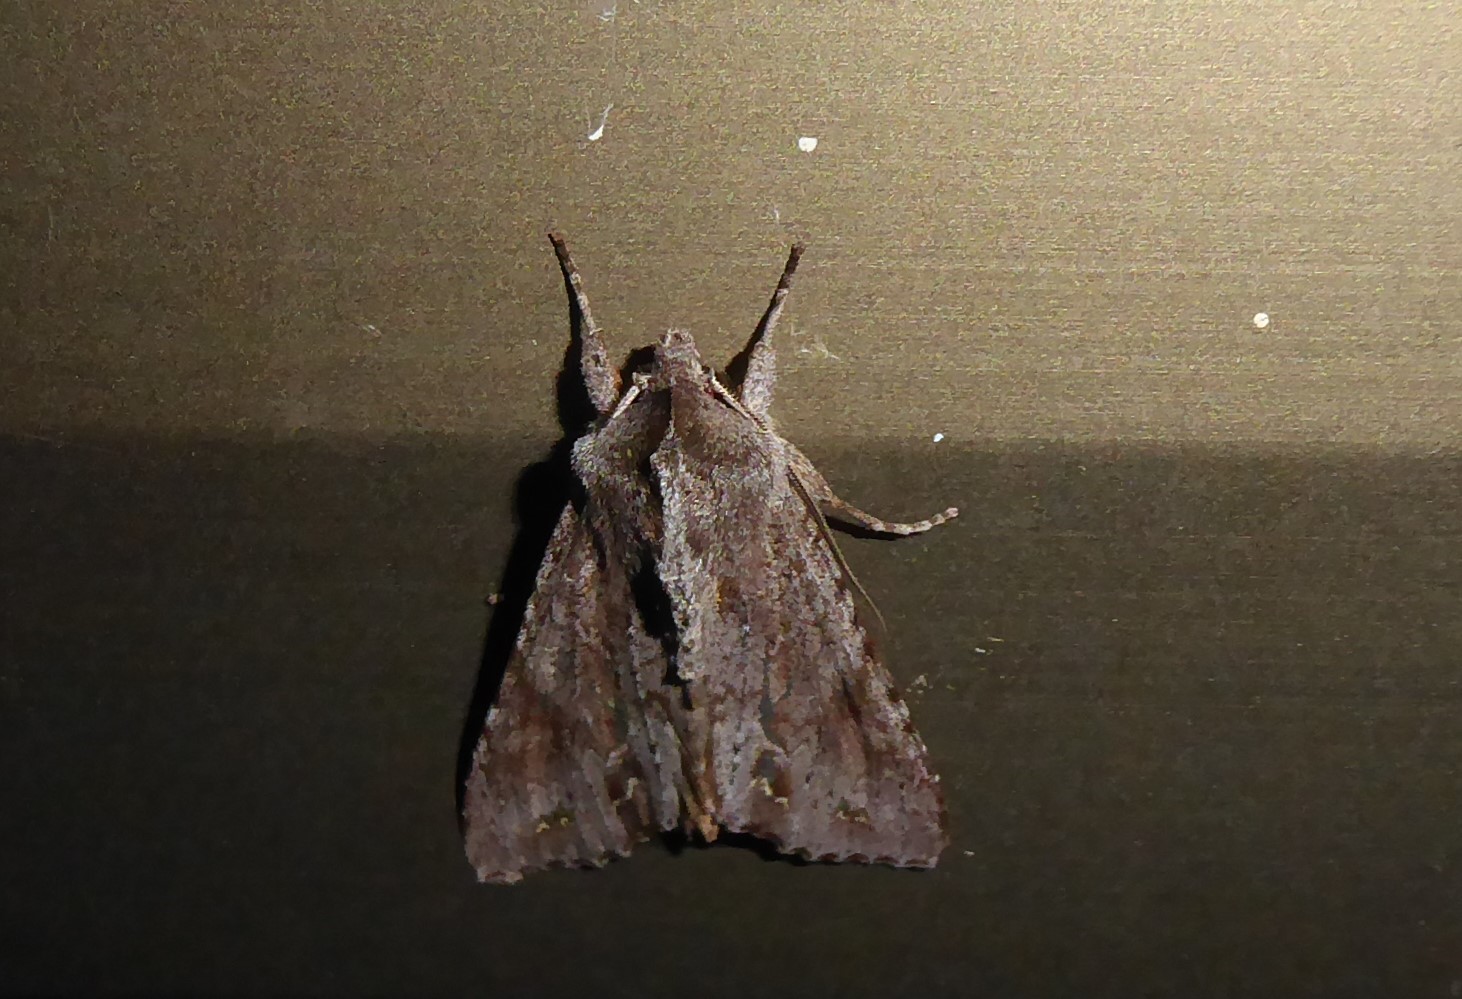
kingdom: Animalia
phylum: Arthropoda
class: Insecta
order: Lepidoptera
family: Noctuidae
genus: Ichneutica
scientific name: Ichneutica
